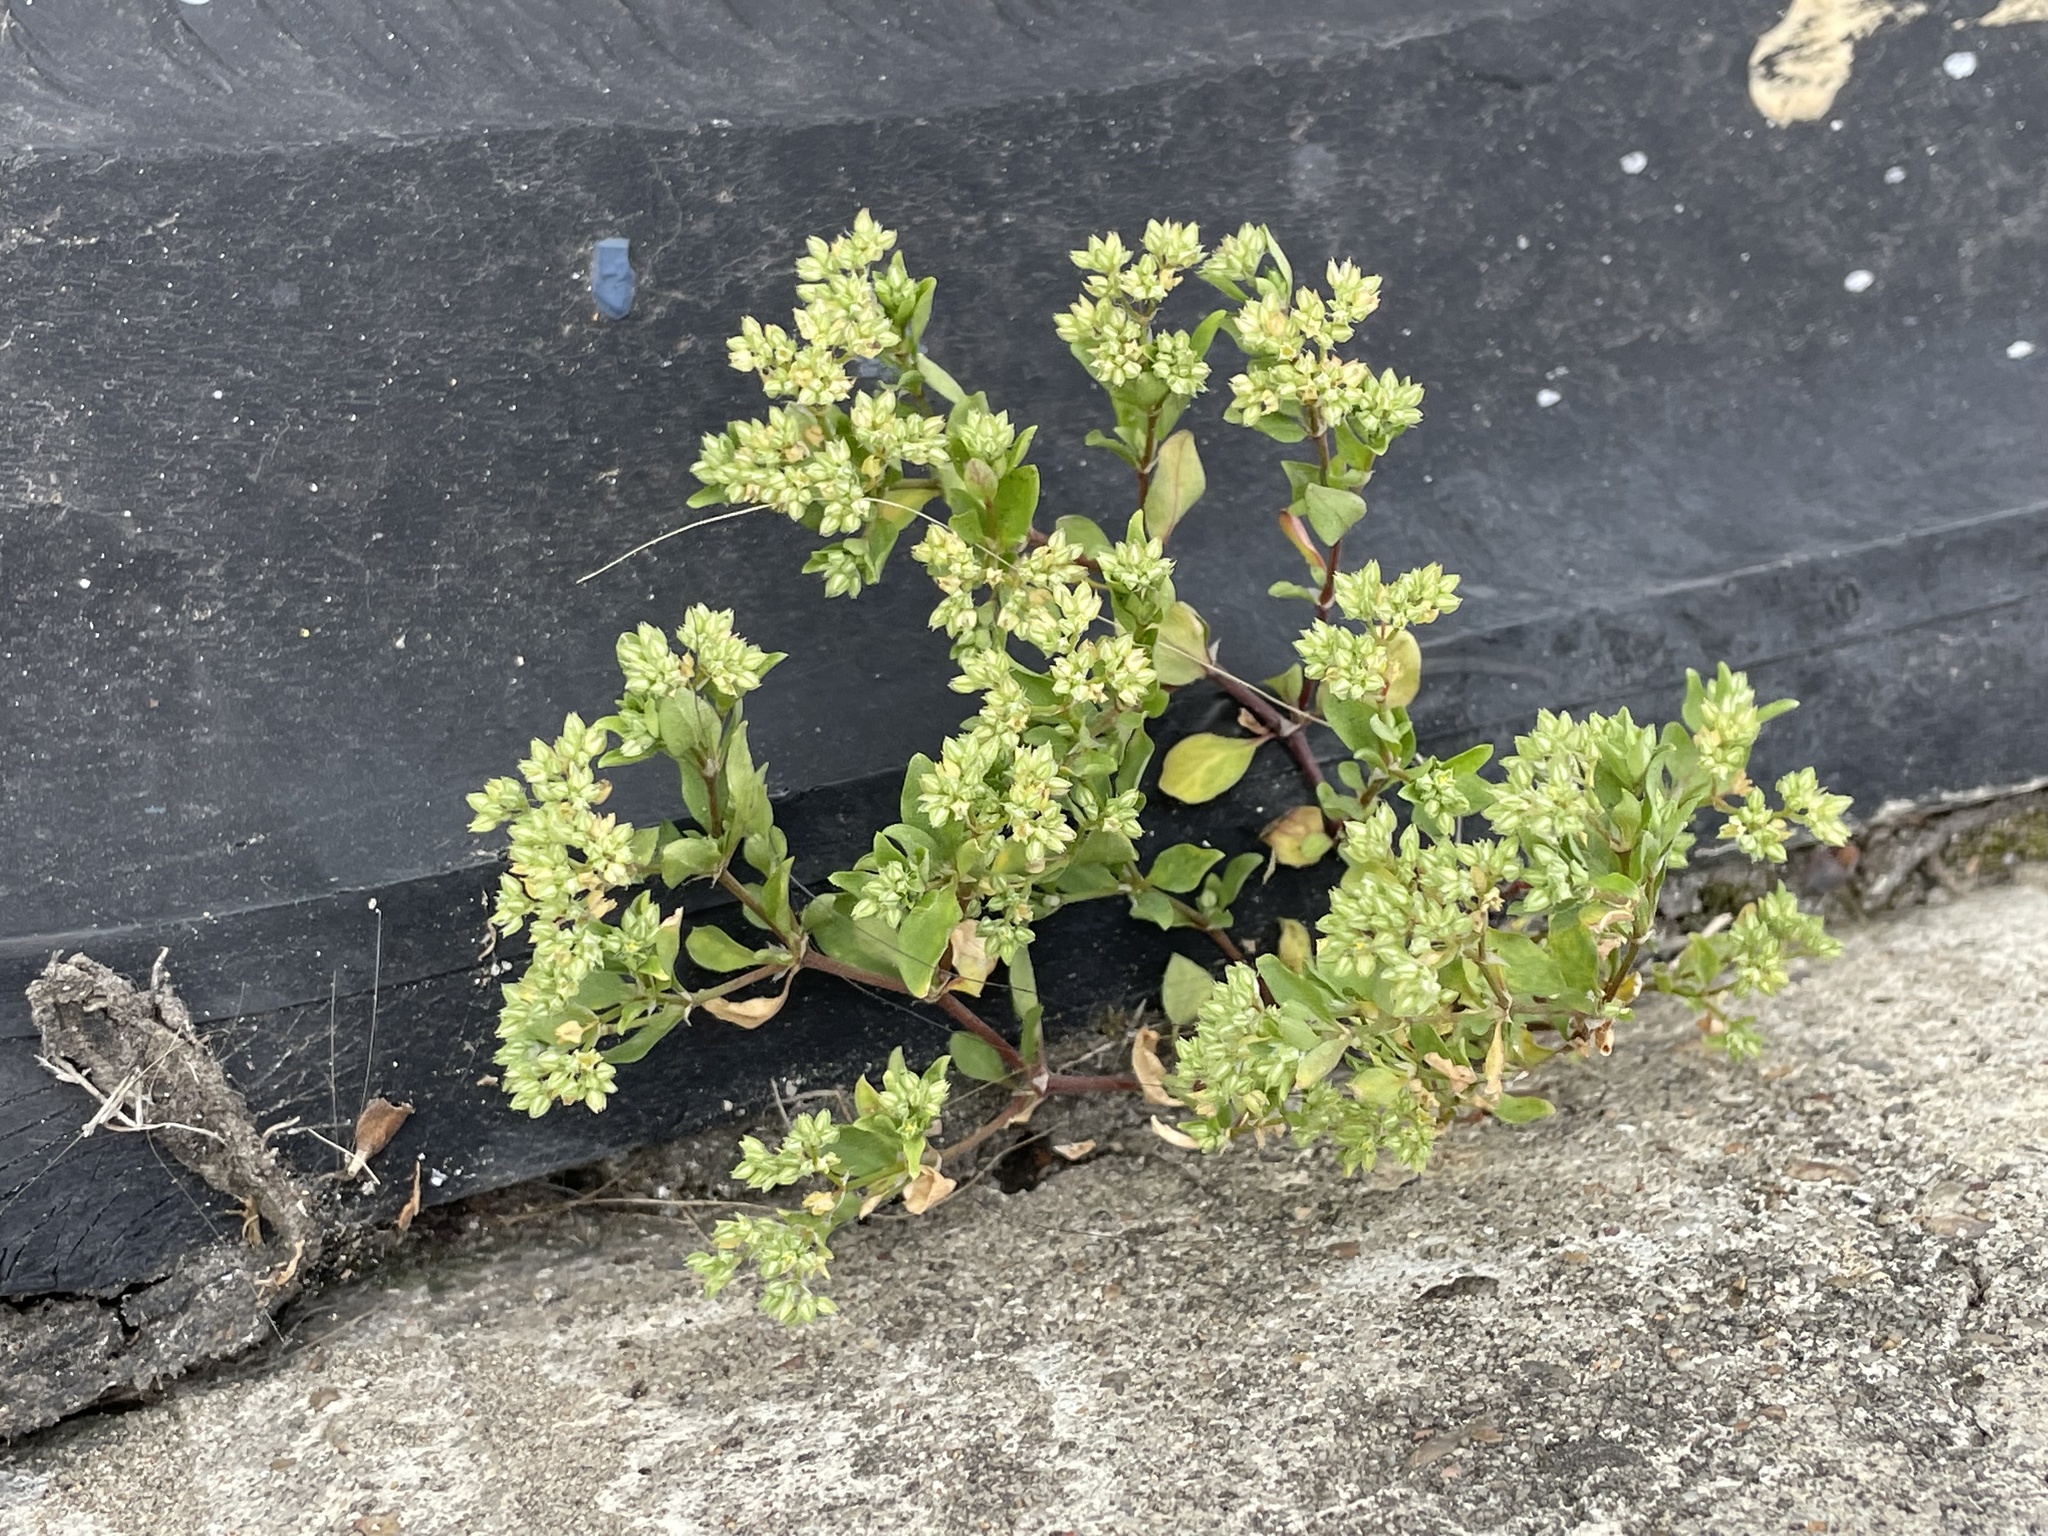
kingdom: Plantae
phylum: Tracheophyta
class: Magnoliopsida
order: Caryophyllales
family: Caryophyllaceae
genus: Polycarpon
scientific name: Polycarpon tetraphyllum
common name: Four-leaved all-seed
